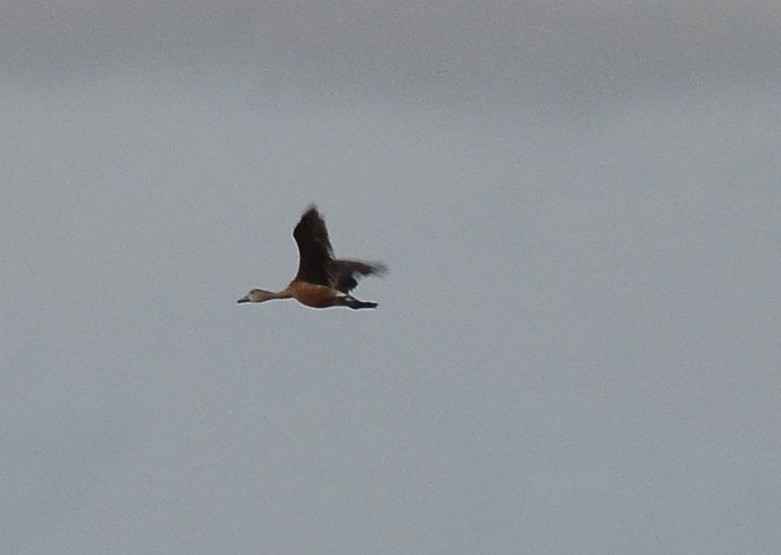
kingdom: Animalia
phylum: Chordata
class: Aves
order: Anseriformes
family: Anatidae
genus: Dendrocygna
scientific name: Dendrocygna javanica
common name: Lesser whistling-duck
